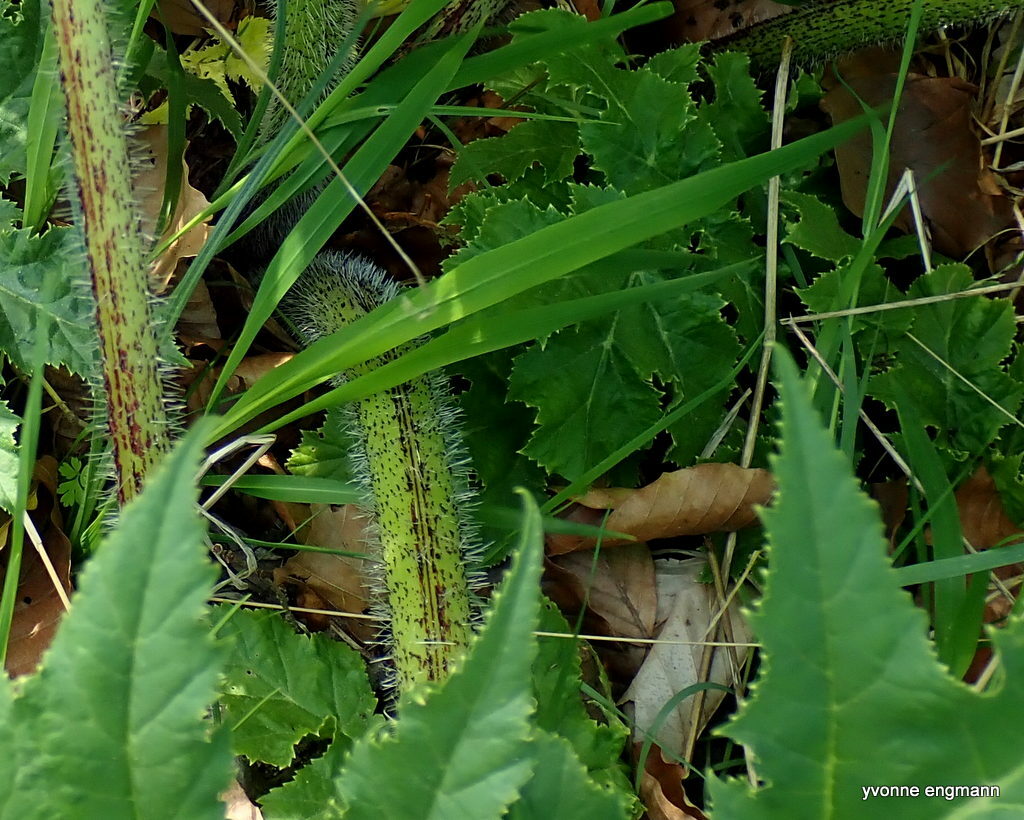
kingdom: Plantae
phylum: Tracheophyta
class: Magnoliopsida
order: Apiales
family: Apiaceae
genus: Heracleum
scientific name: Heracleum mantegazzianum
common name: Giant hogweed
